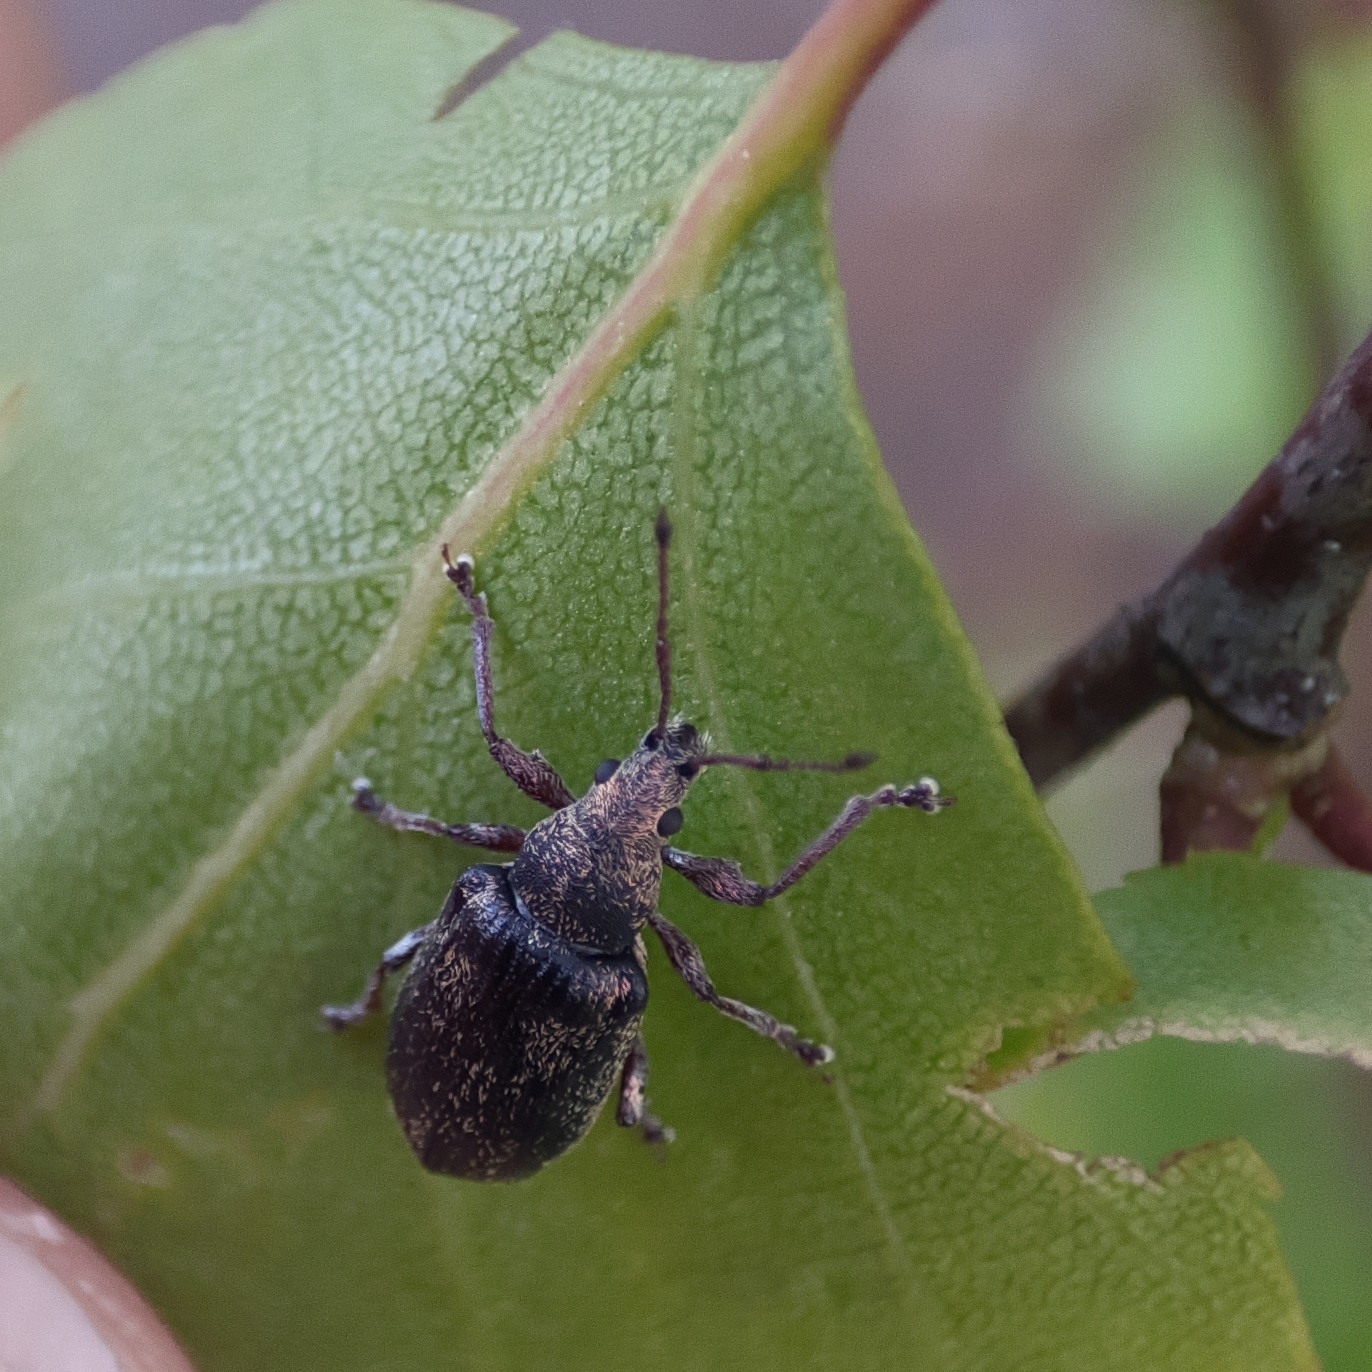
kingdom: Animalia
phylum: Arthropoda
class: Insecta
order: Coleoptera
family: Curculionidae
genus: Phyllobius
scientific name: Phyllobius pyri
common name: Common leaf weevil
